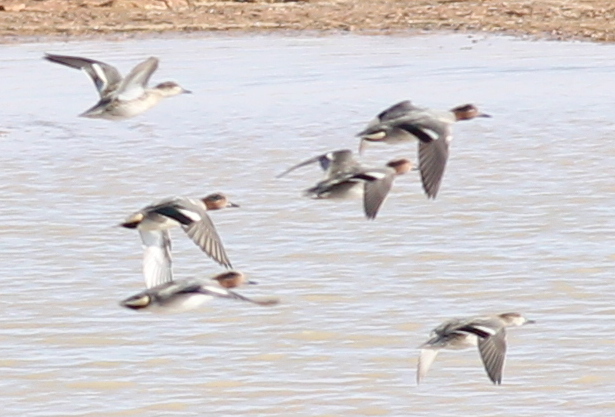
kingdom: Animalia
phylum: Chordata
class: Aves
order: Anseriformes
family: Anatidae
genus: Anas
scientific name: Anas crecca
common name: Eurasian teal
